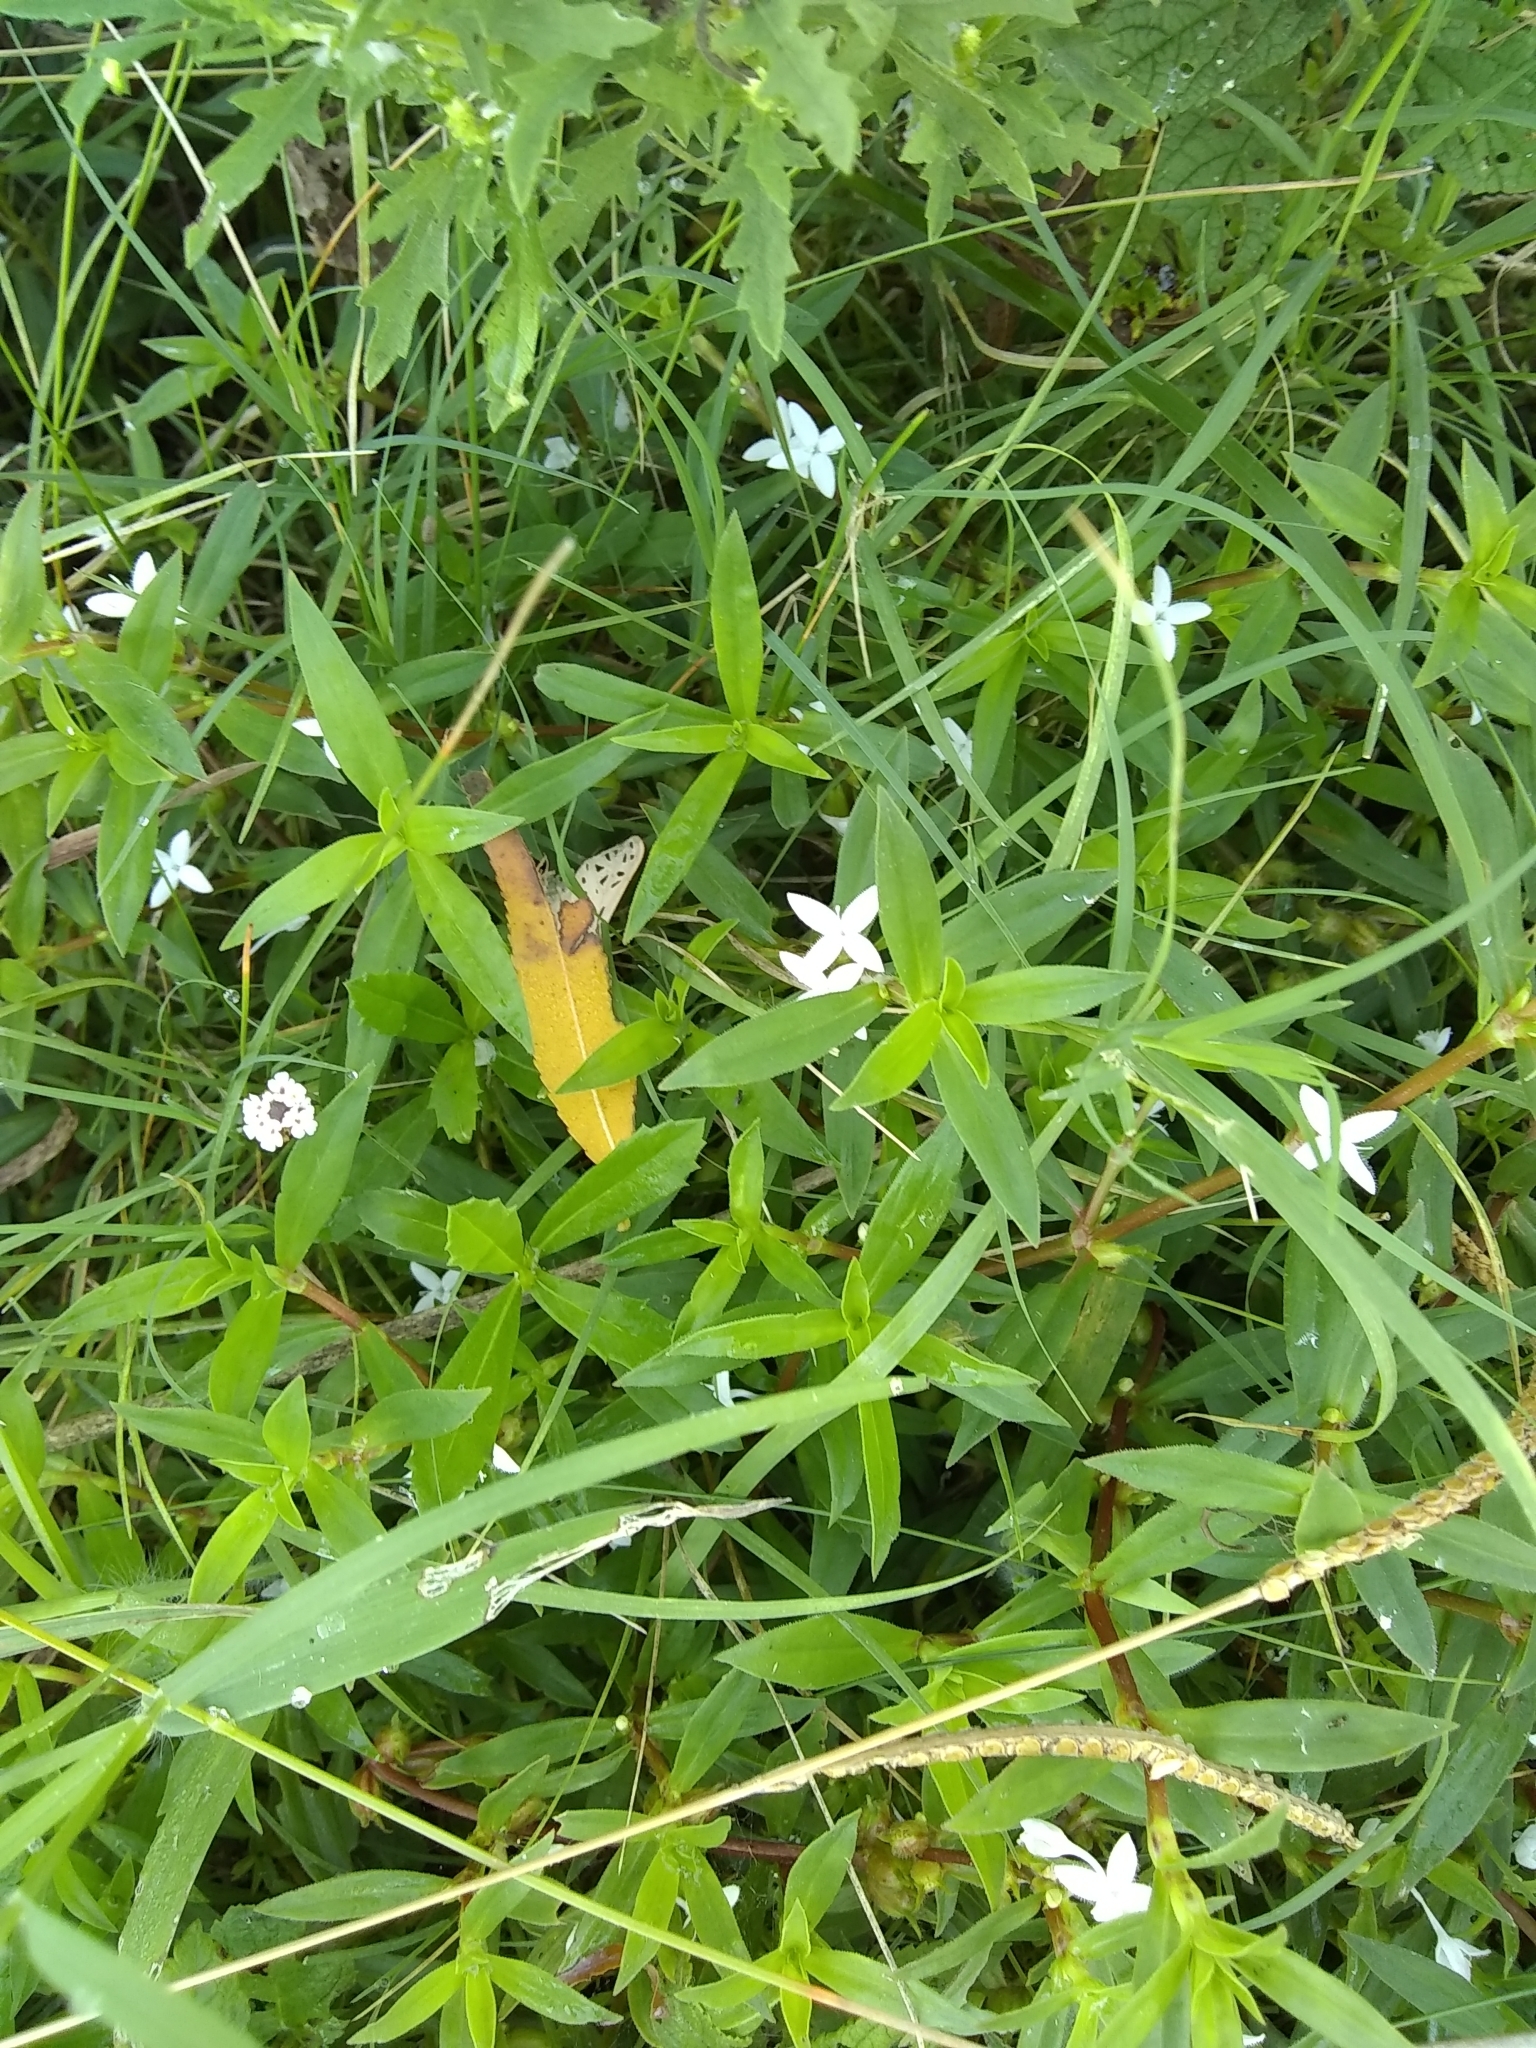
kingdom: Plantae
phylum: Tracheophyta
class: Magnoliopsida
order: Gentianales
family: Rubiaceae
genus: Diodia
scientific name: Diodia virginiana
